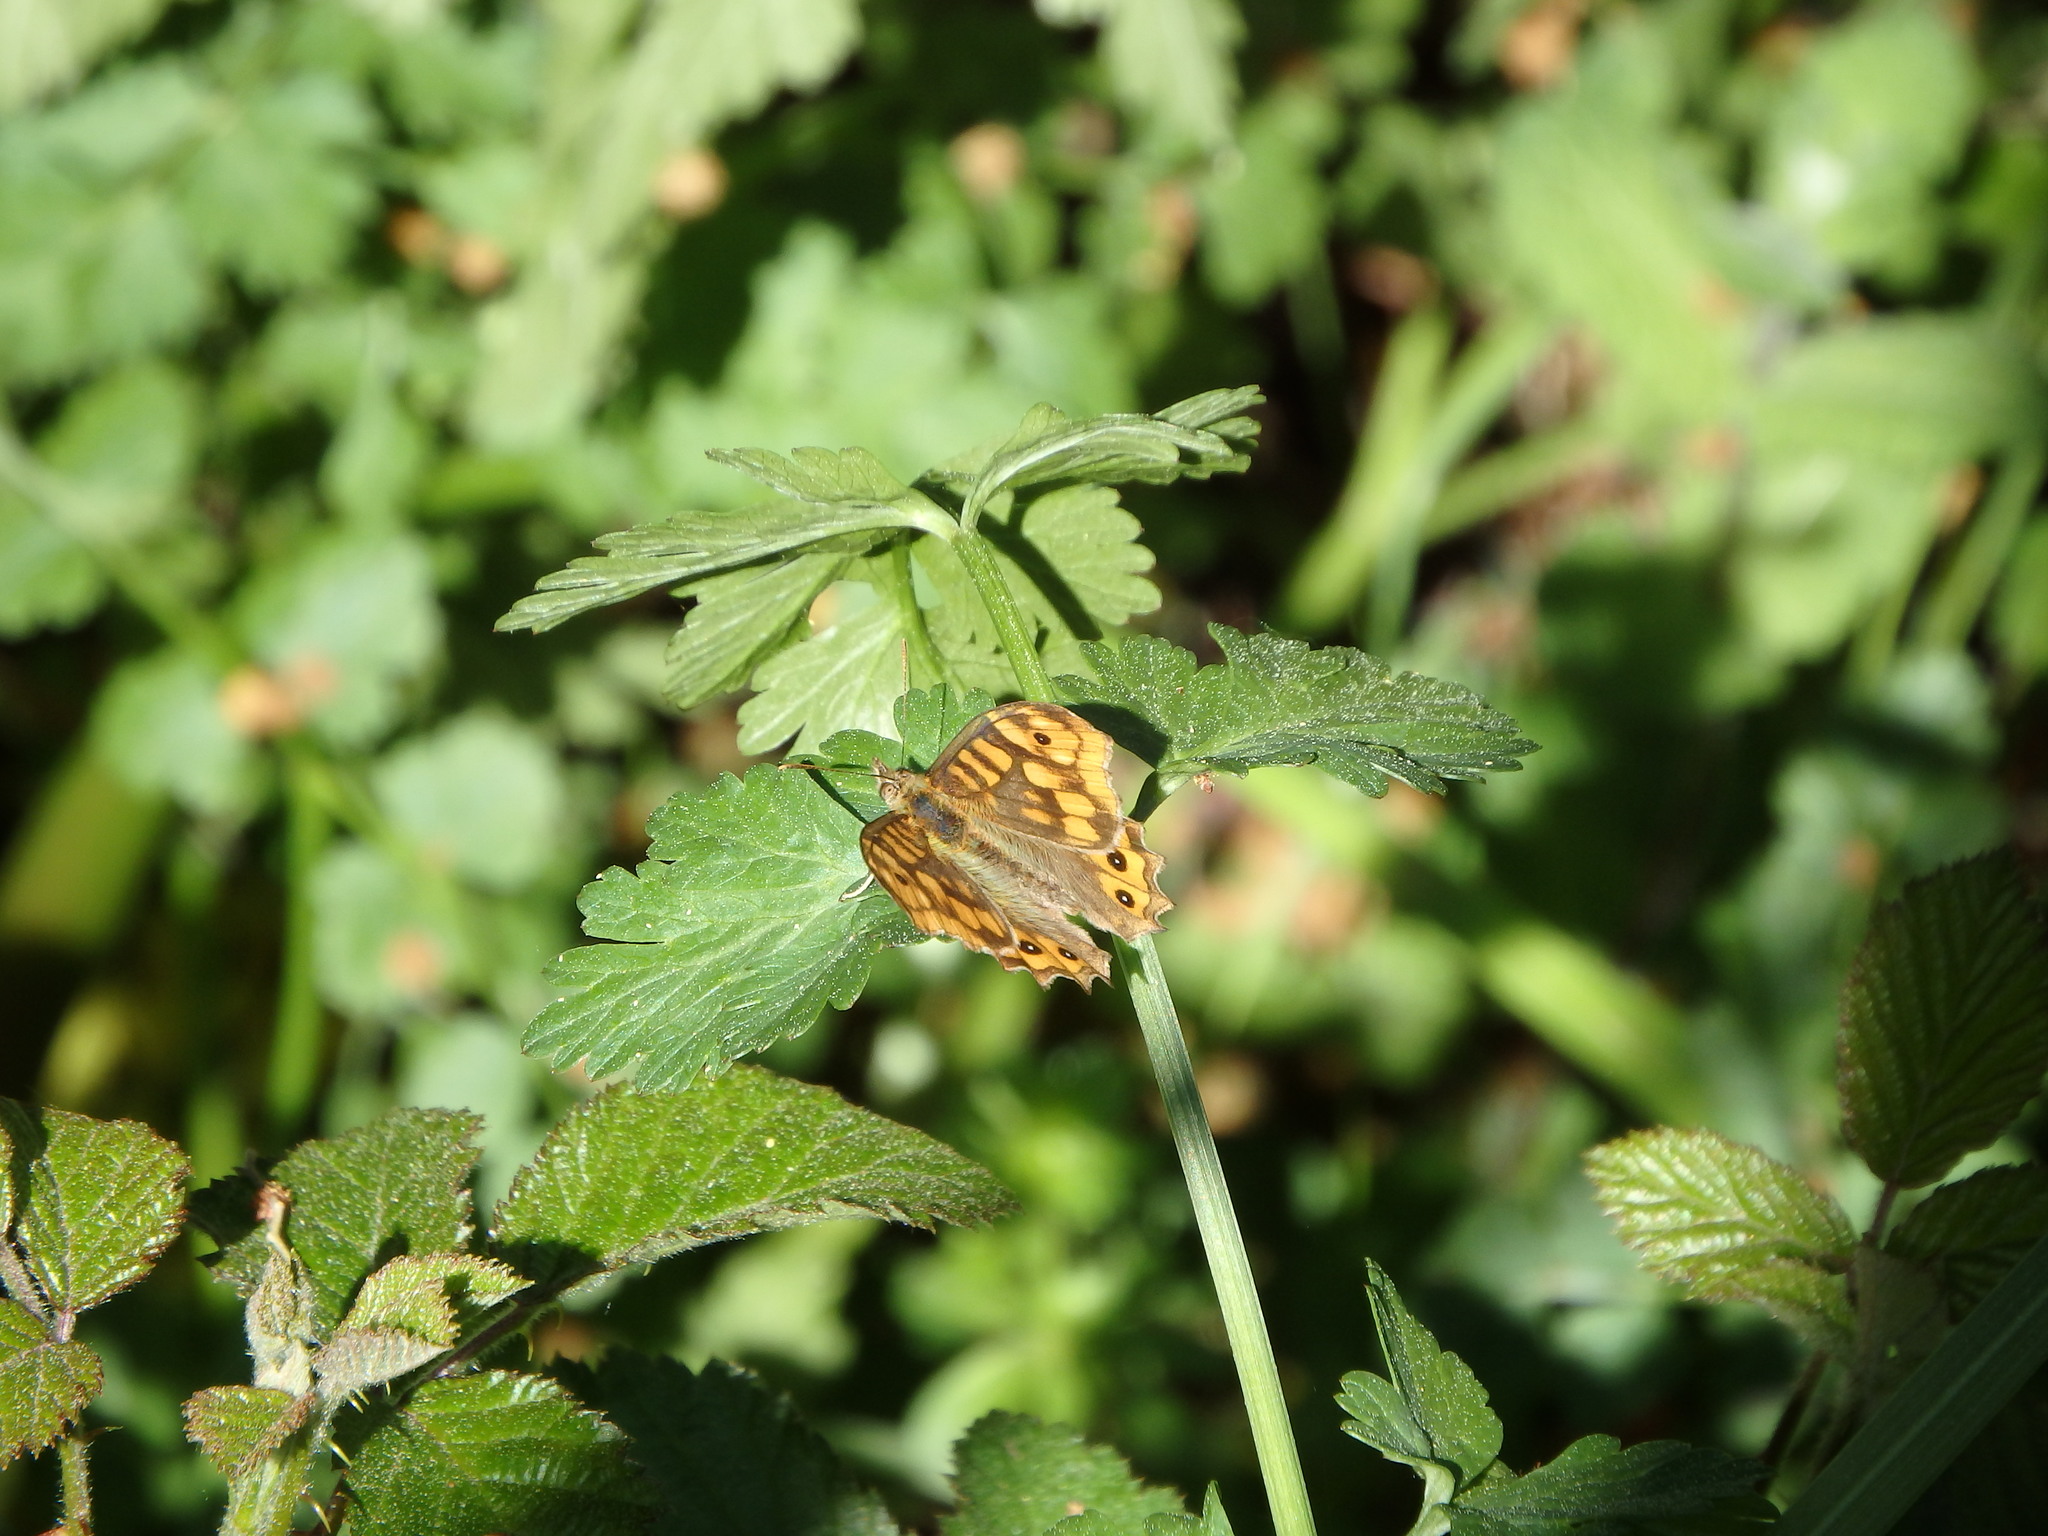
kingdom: Animalia
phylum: Arthropoda
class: Insecta
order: Lepidoptera
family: Nymphalidae
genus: Pararge
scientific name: Pararge aegeria
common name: Speckled wood
